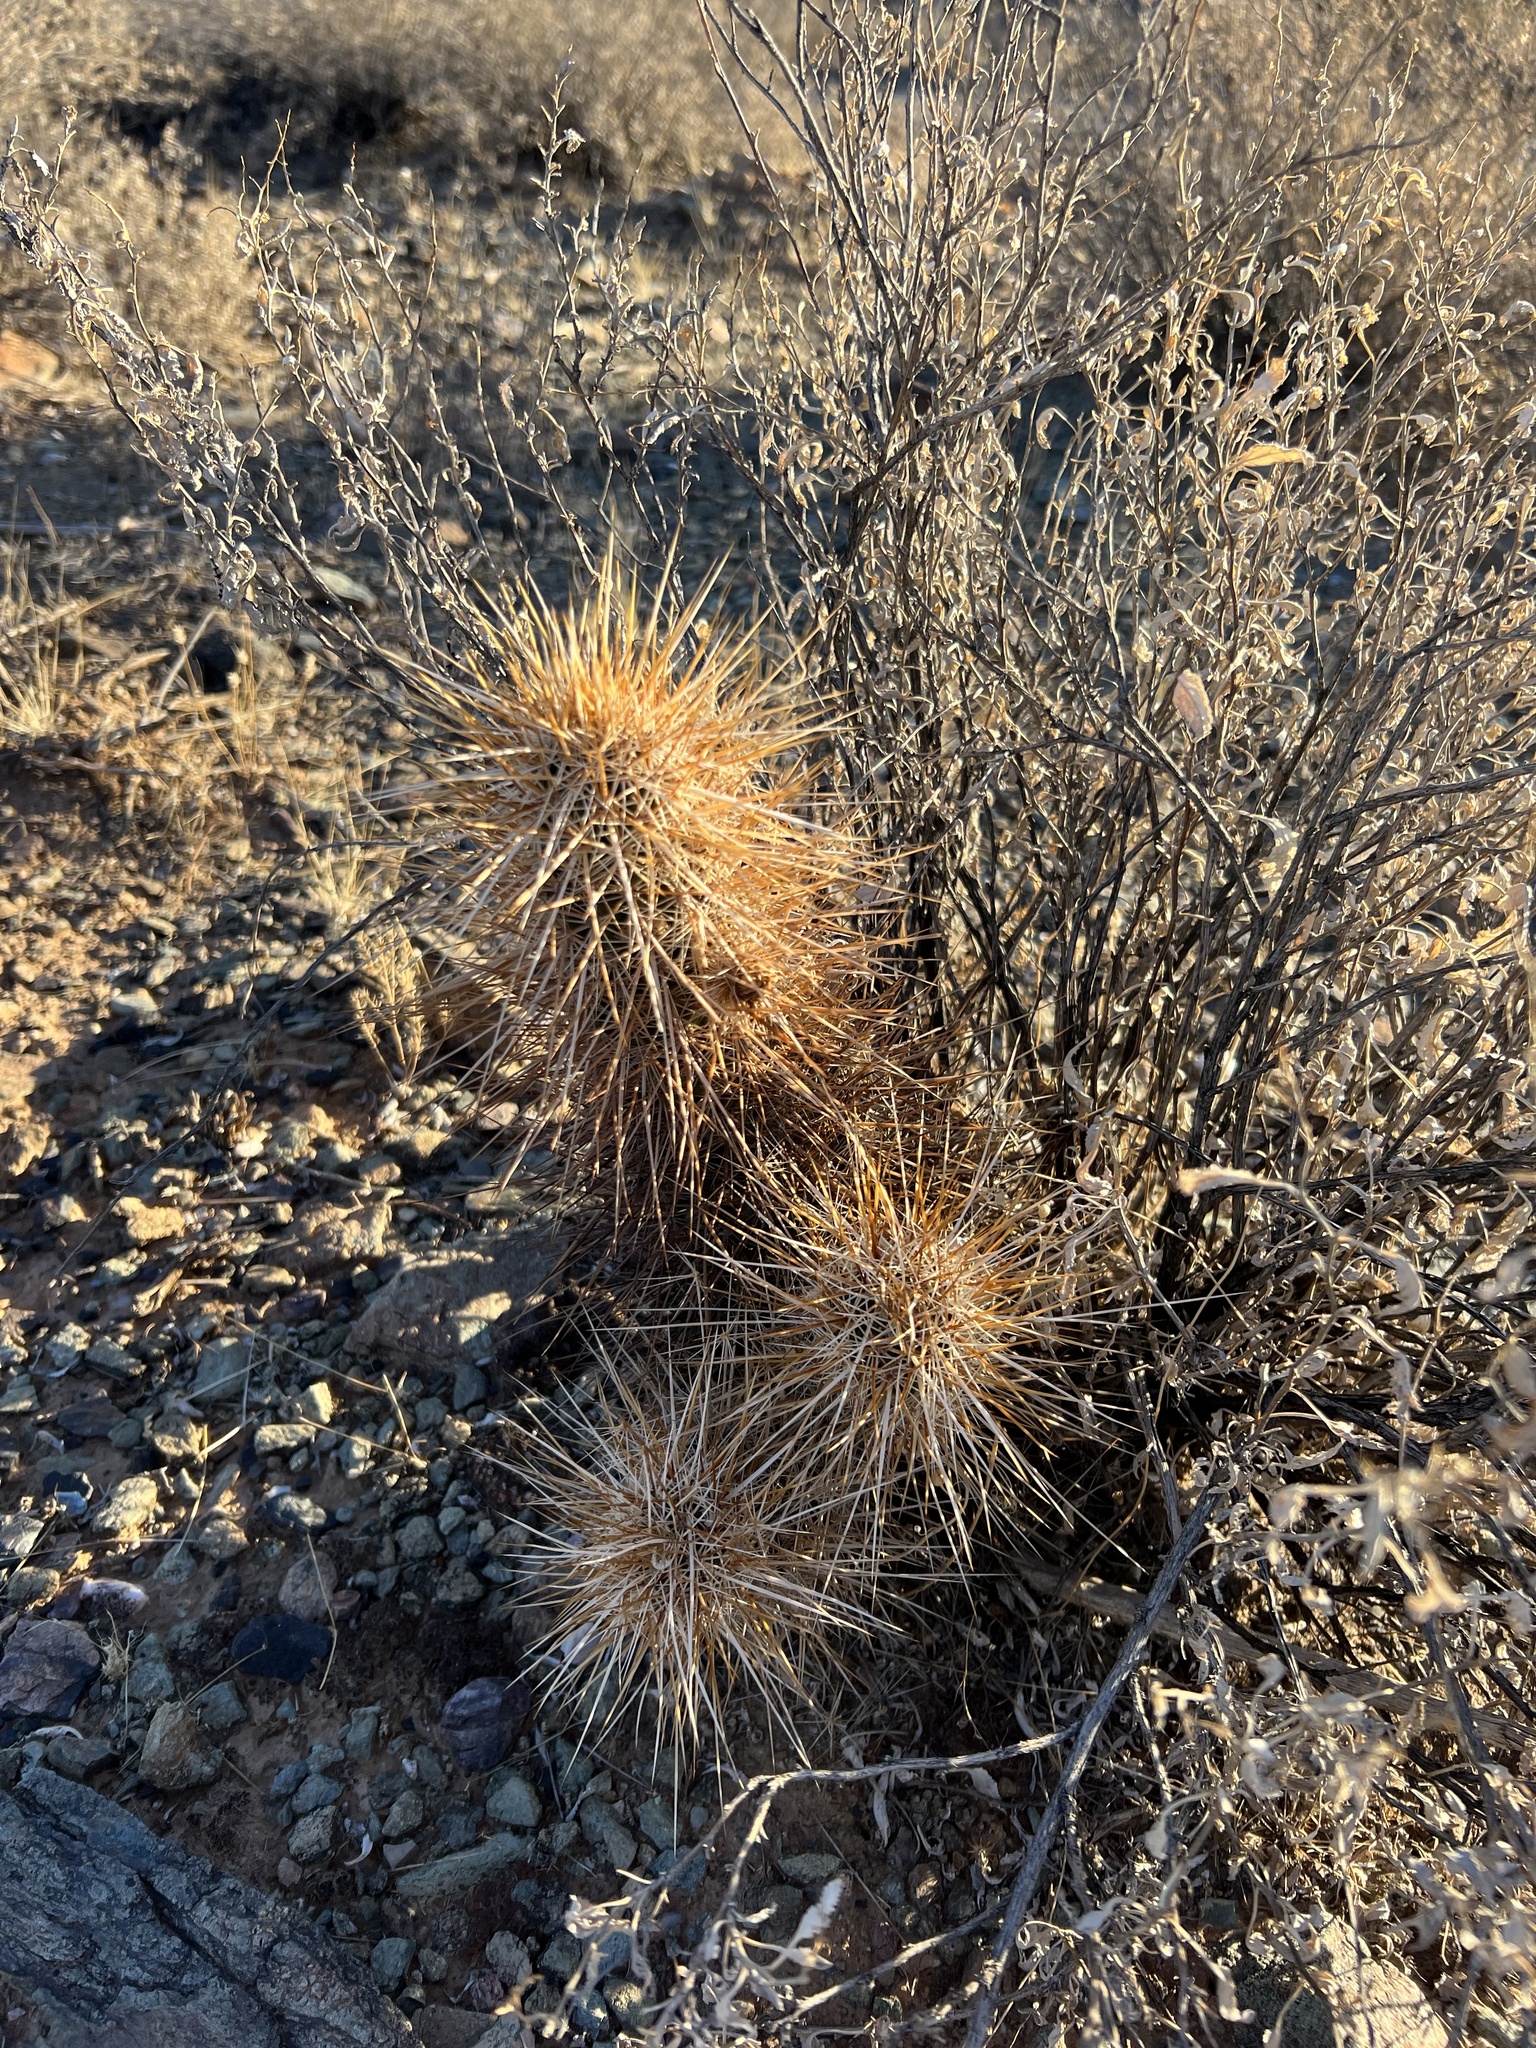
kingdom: Plantae
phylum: Tracheophyta
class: Magnoliopsida
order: Caryophyllales
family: Cactaceae
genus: Echinocereus
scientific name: Echinocereus engelmannii
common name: Engelmann's hedgehog cactus
